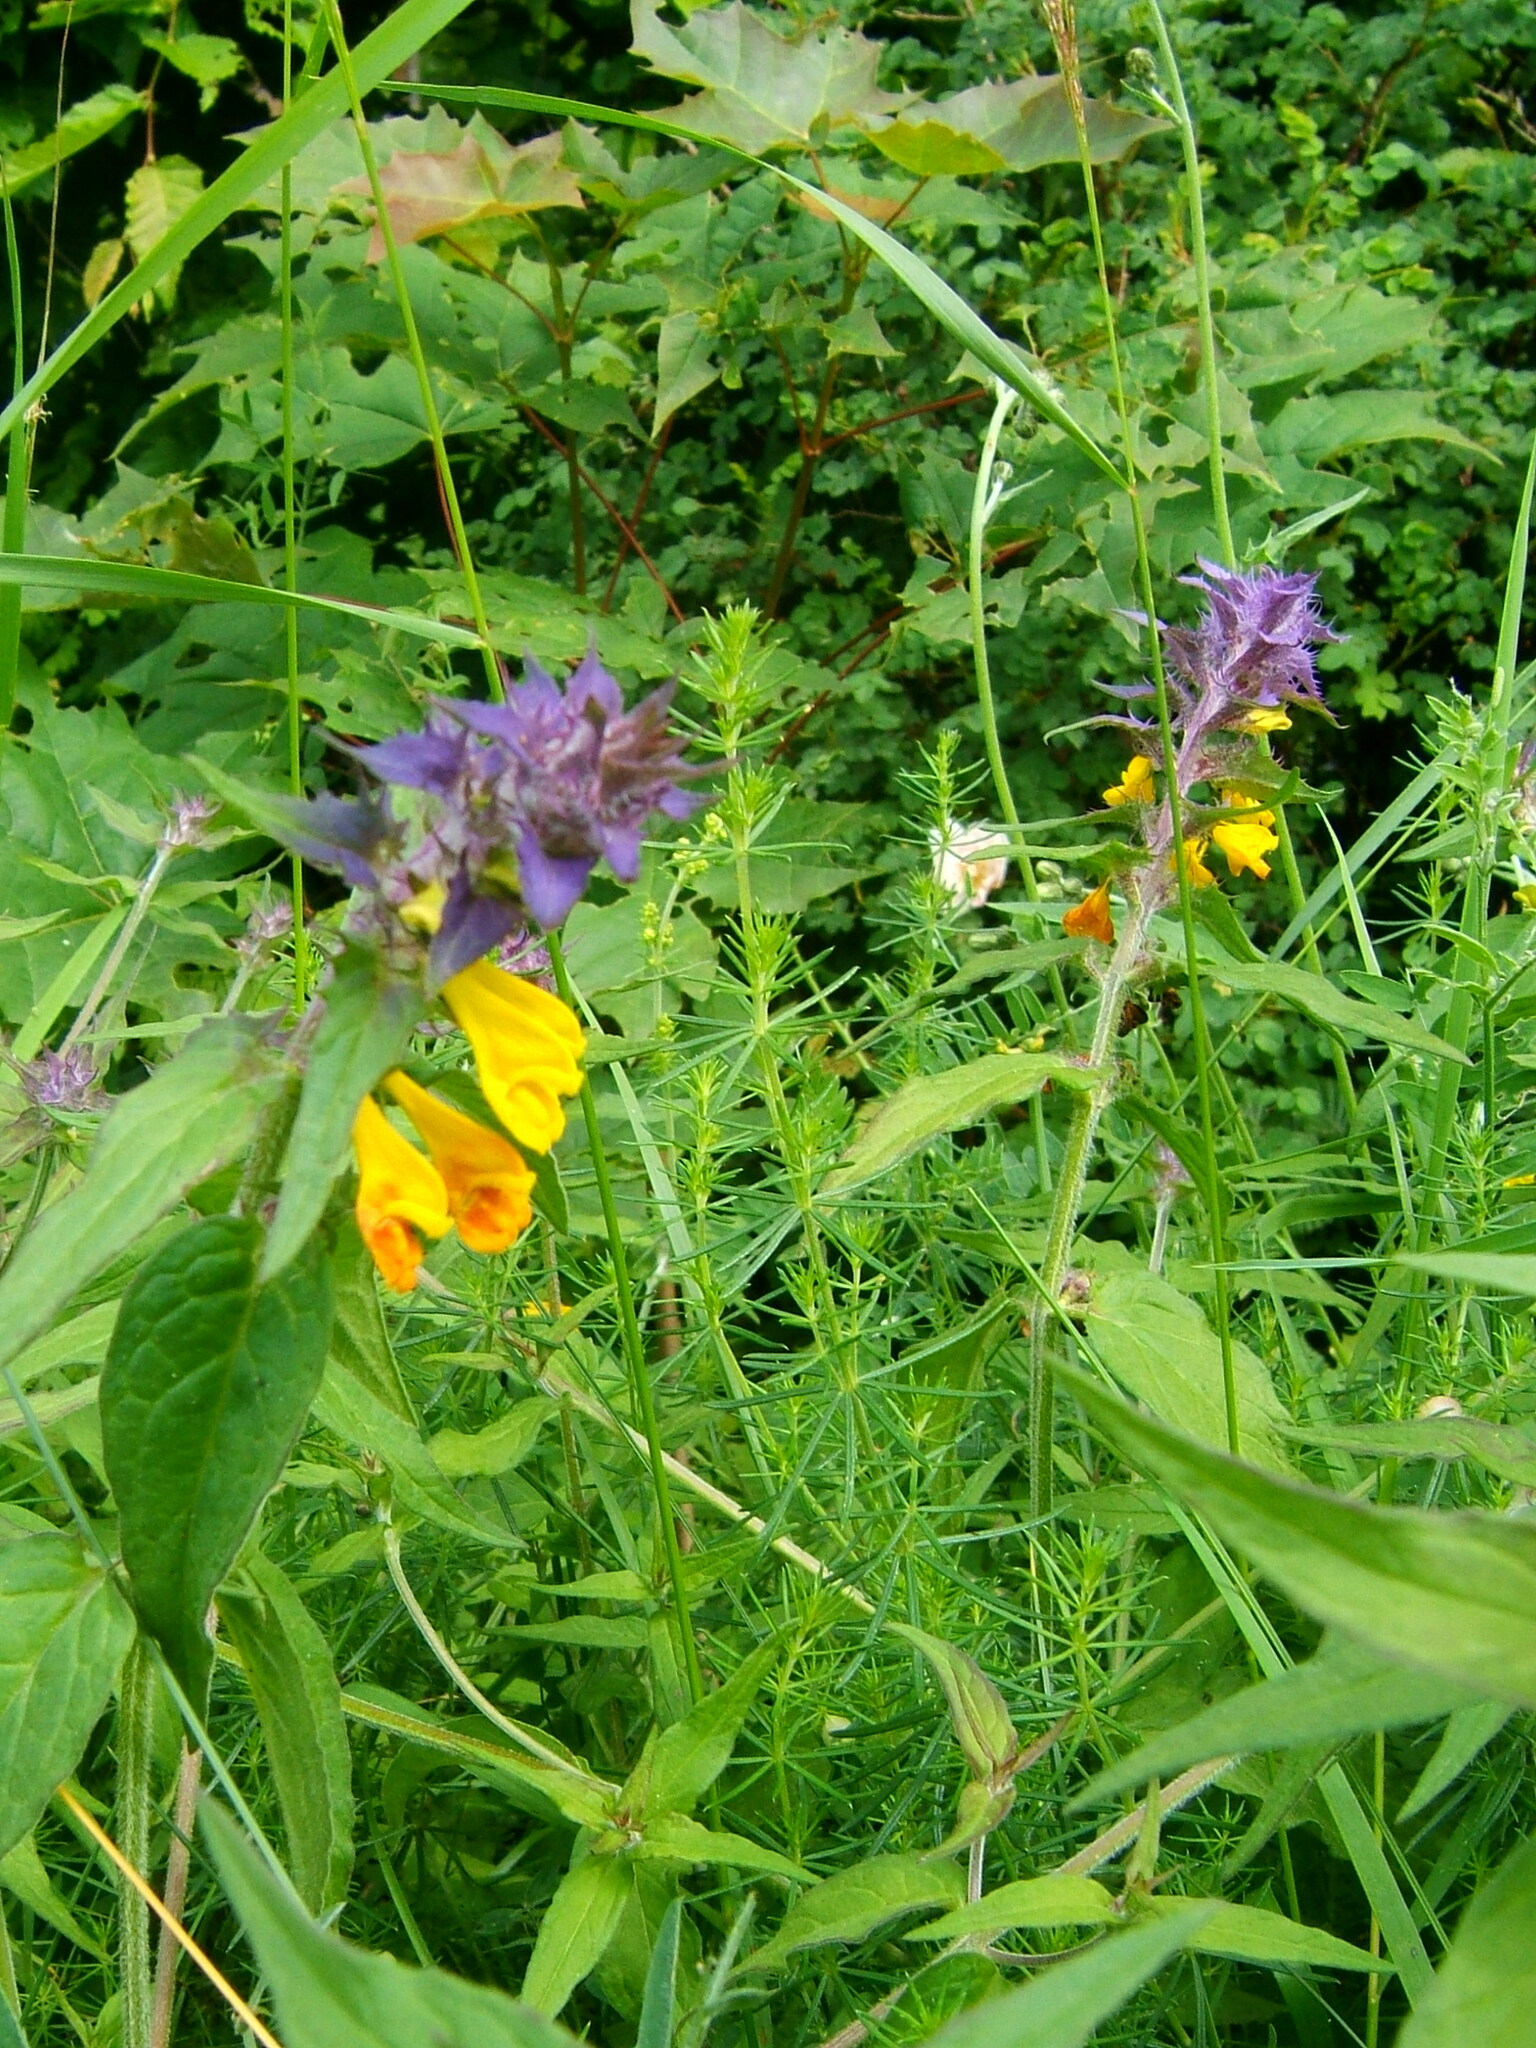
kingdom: Plantae
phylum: Tracheophyta
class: Magnoliopsida
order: Lamiales
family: Orobanchaceae
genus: Melampyrum
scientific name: Melampyrum nemorosum
